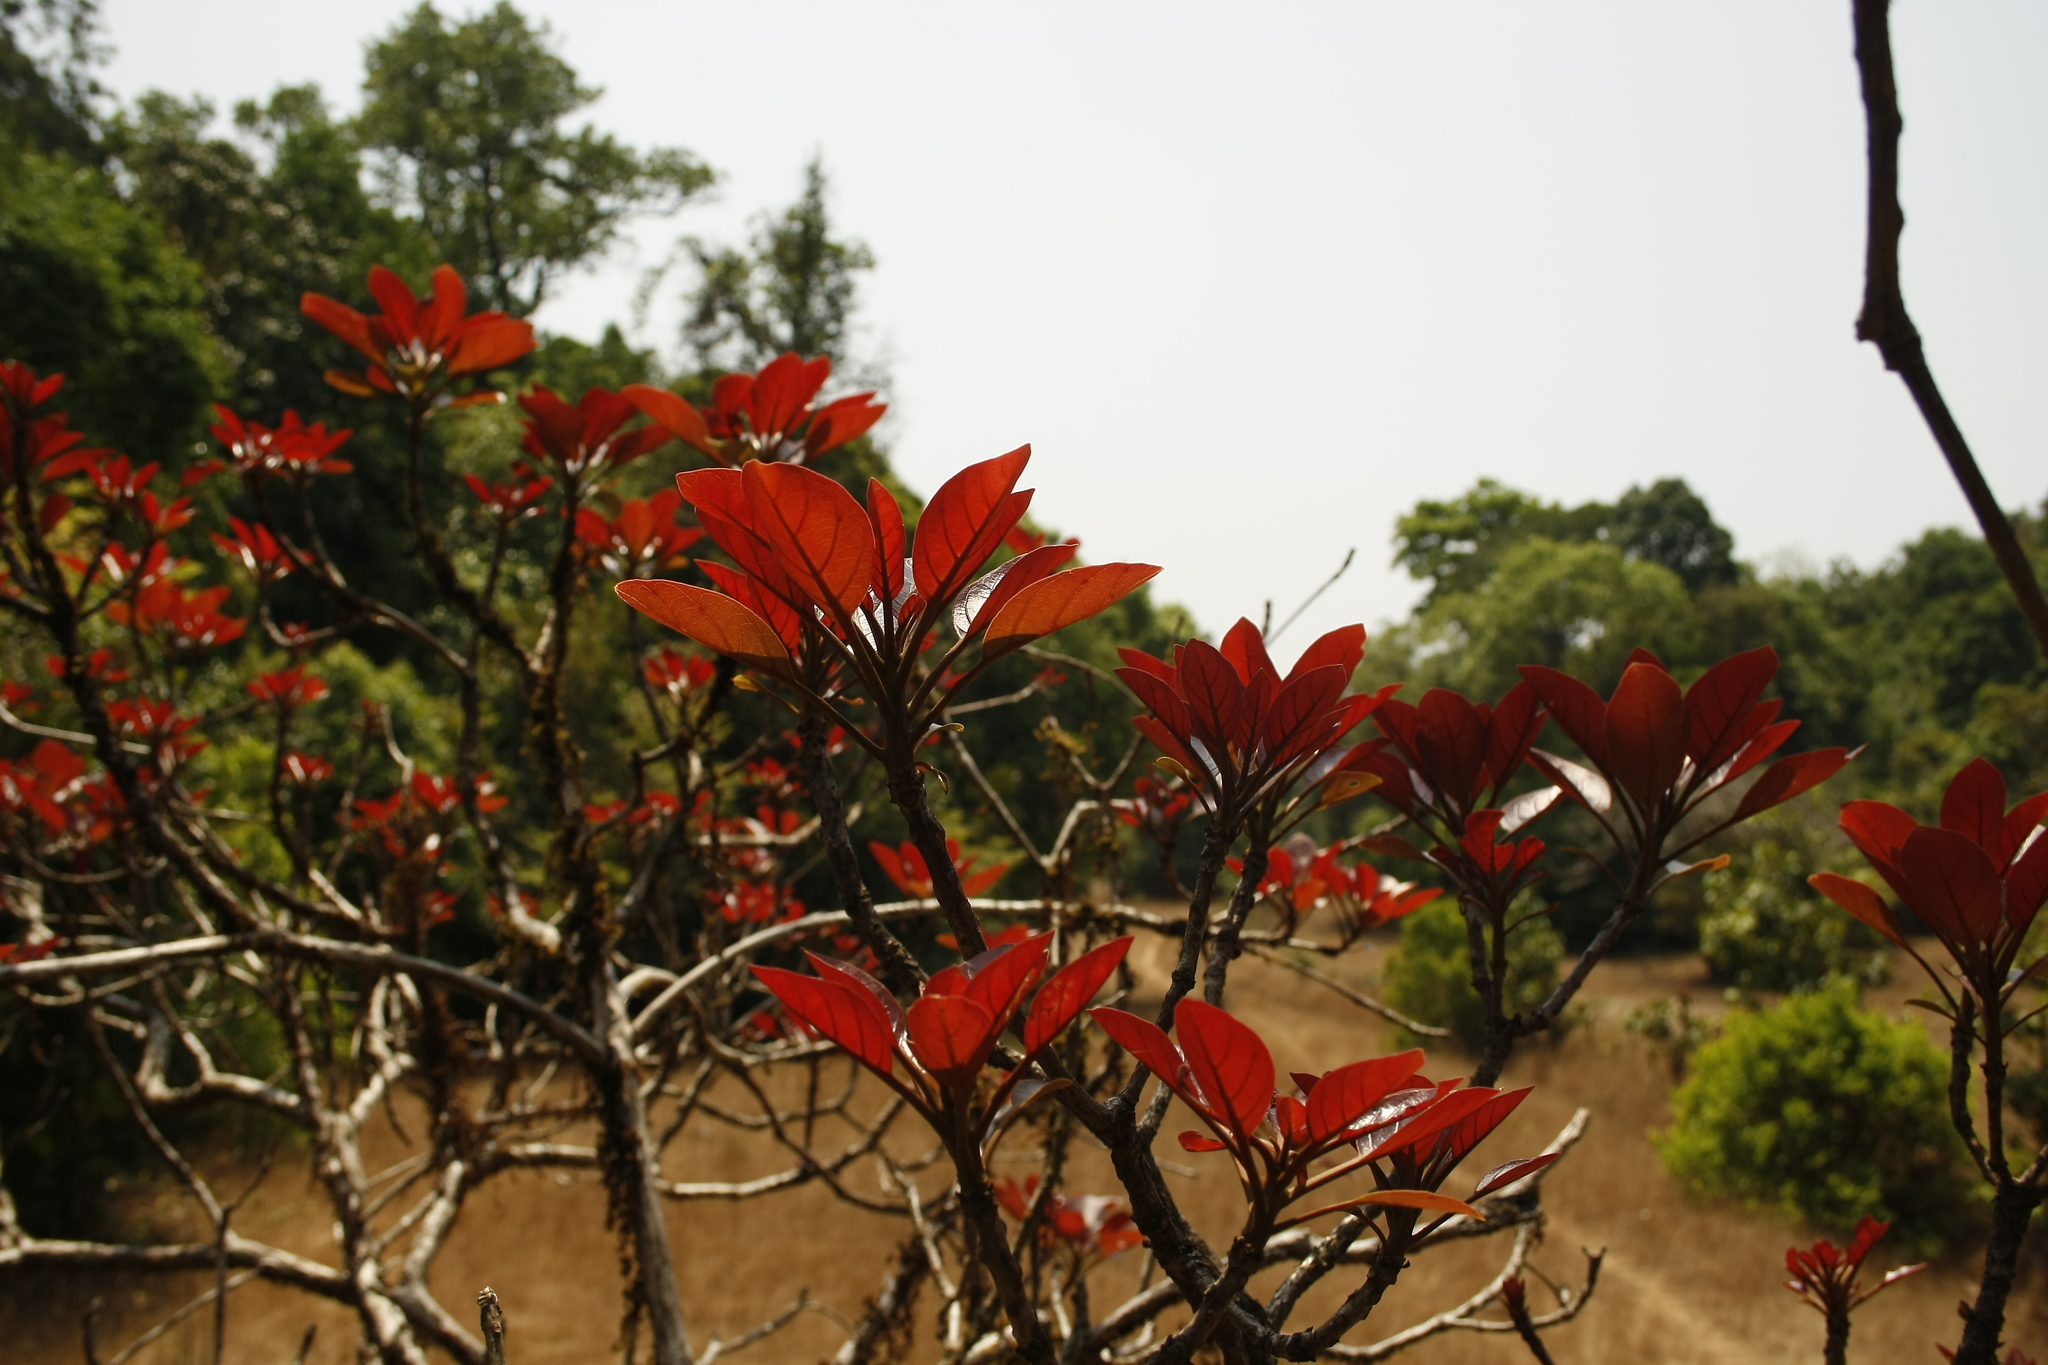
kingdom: Plantae
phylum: Tracheophyta
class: Magnoliopsida
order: Myrtales
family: Combretaceae
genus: Terminalia
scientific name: Terminalia bellirica
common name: Beleric myrobalan
